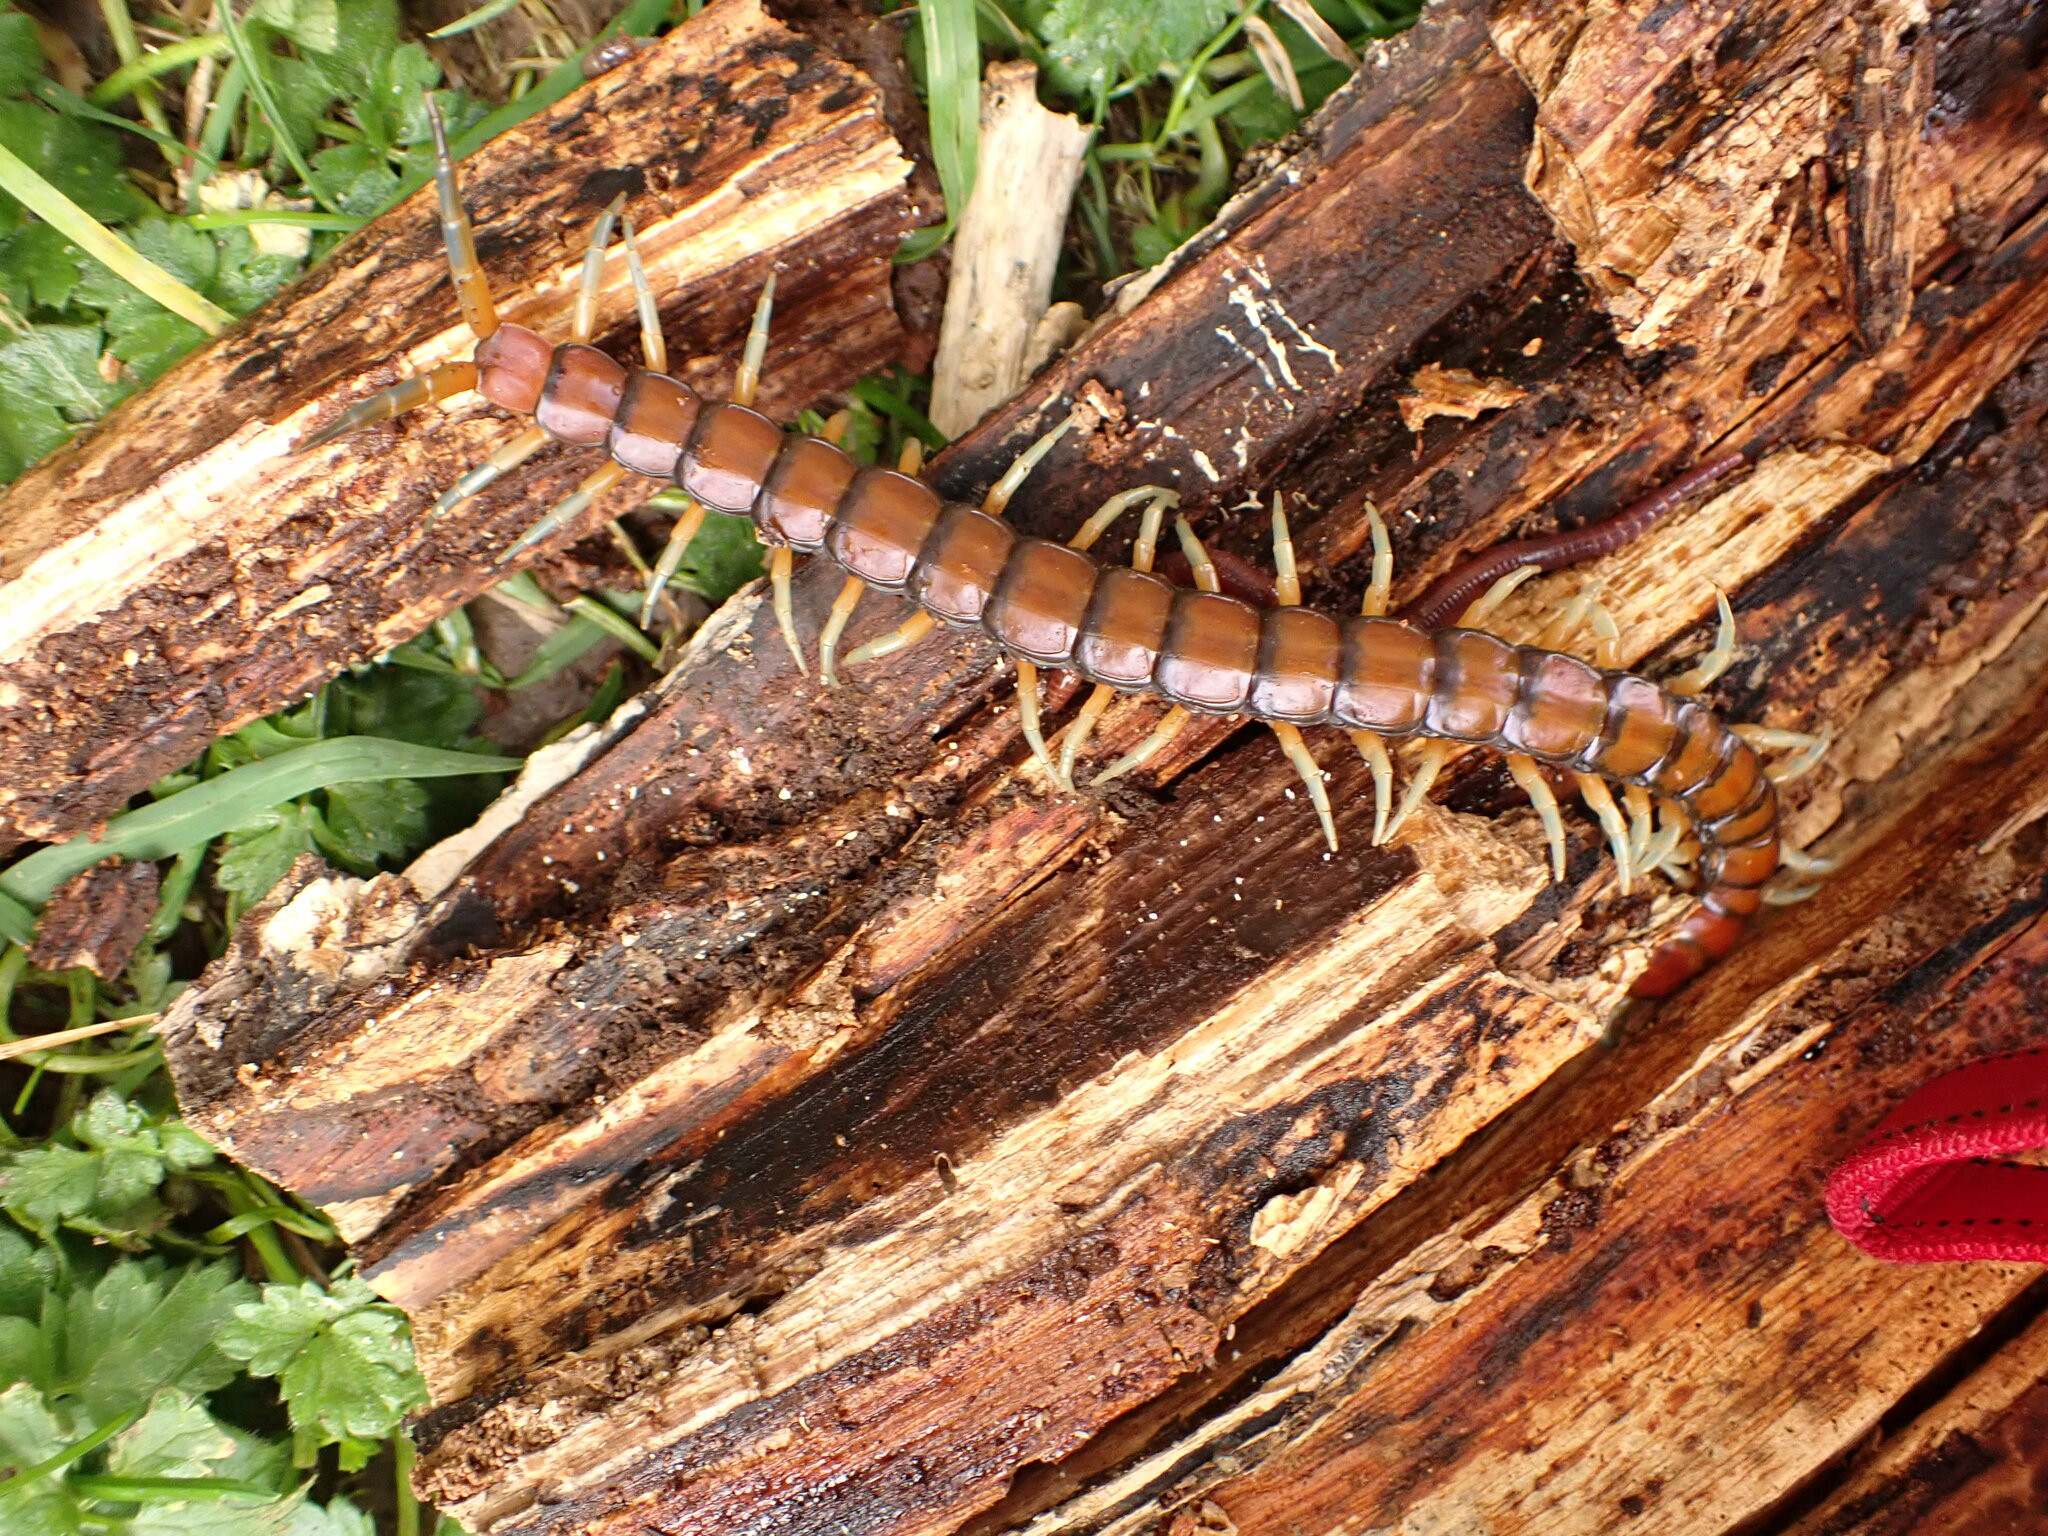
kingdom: Animalia
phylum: Arthropoda
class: Chilopoda
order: Scolopendromorpha
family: Scolopendridae
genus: Cormocephalus
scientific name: Cormocephalus rubriceps
